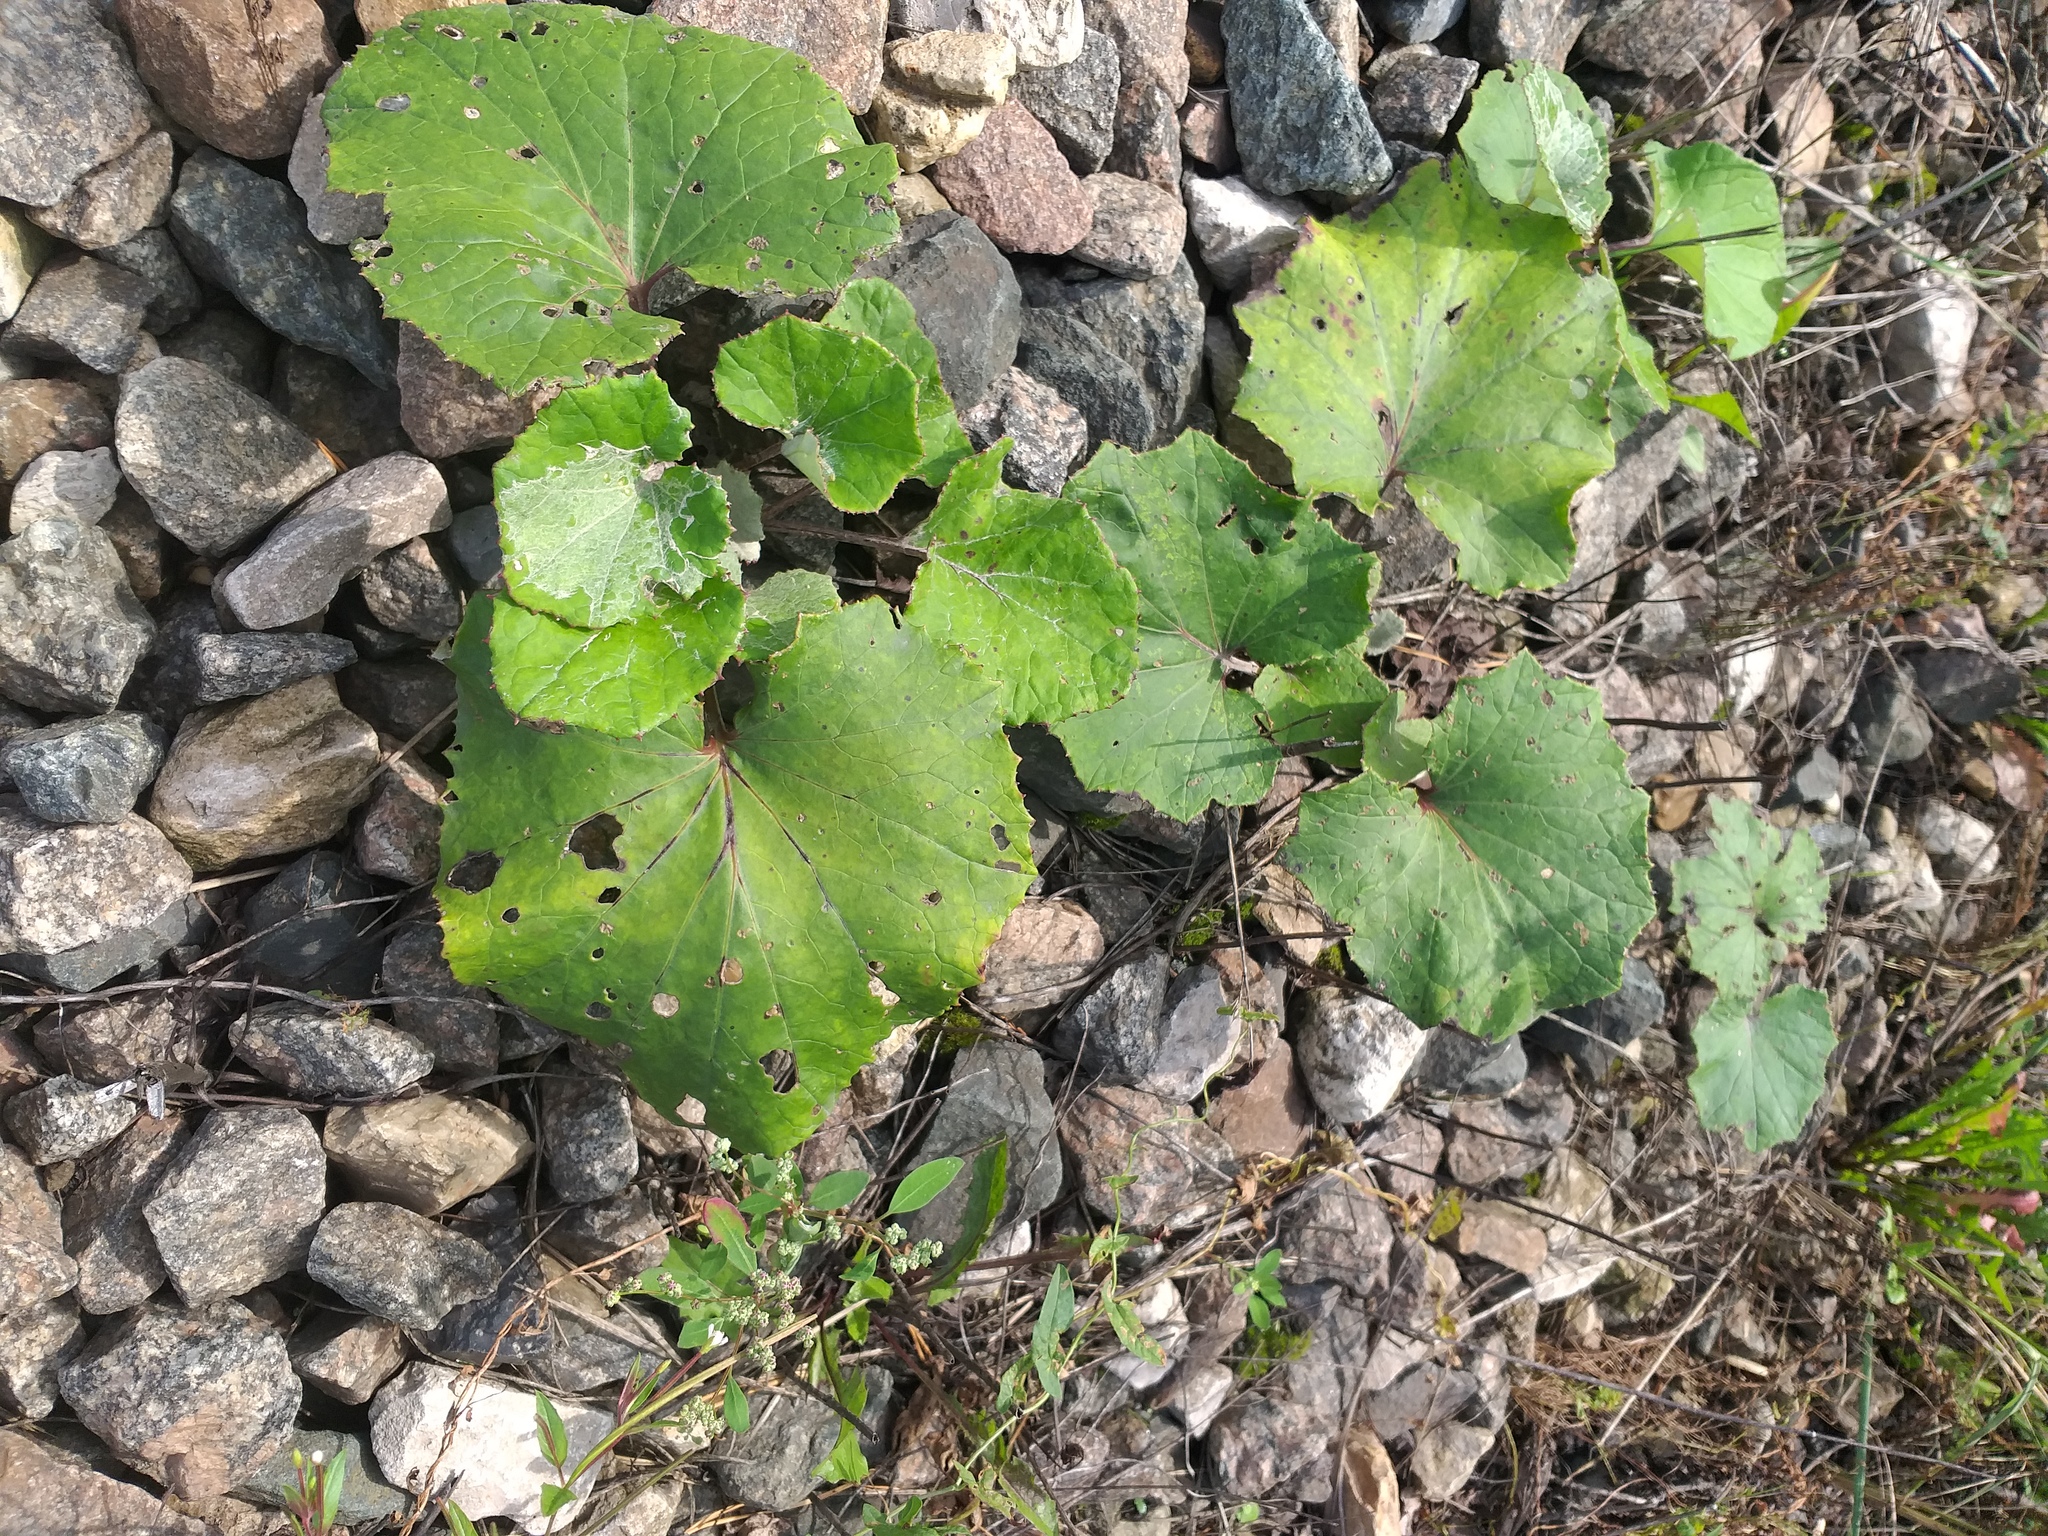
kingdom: Plantae
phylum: Tracheophyta
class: Magnoliopsida
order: Asterales
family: Asteraceae
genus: Tussilago
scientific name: Tussilago farfara
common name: Coltsfoot
